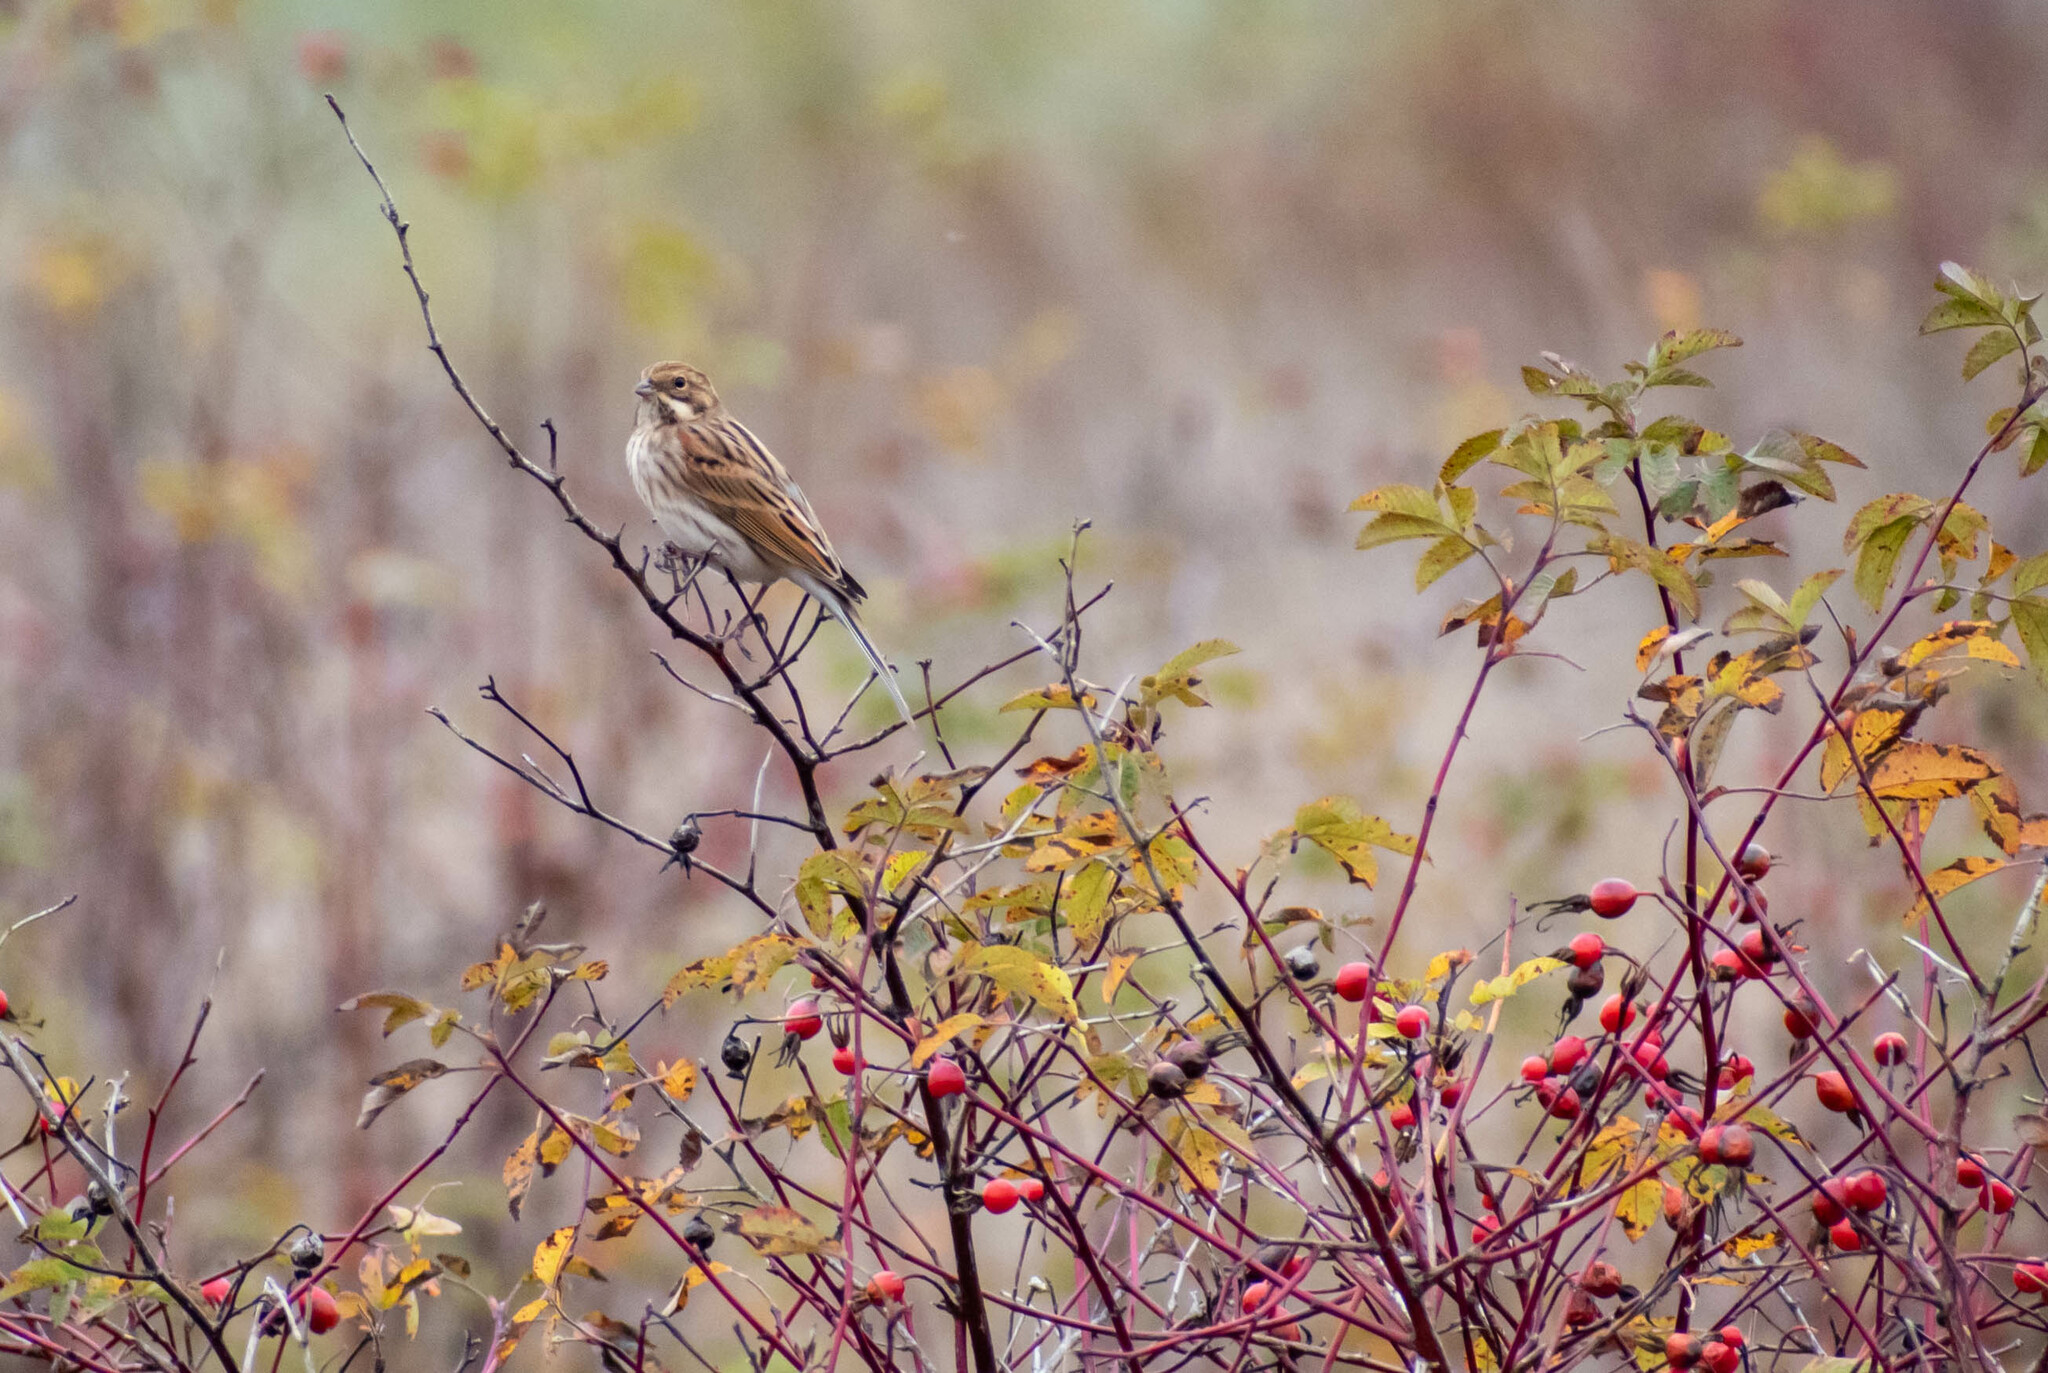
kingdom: Animalia
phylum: Chordata
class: Aves
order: Passeriformes
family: Emberizidae
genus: Emberiza
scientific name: Emberiza schoeniclus
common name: Reed bunting
